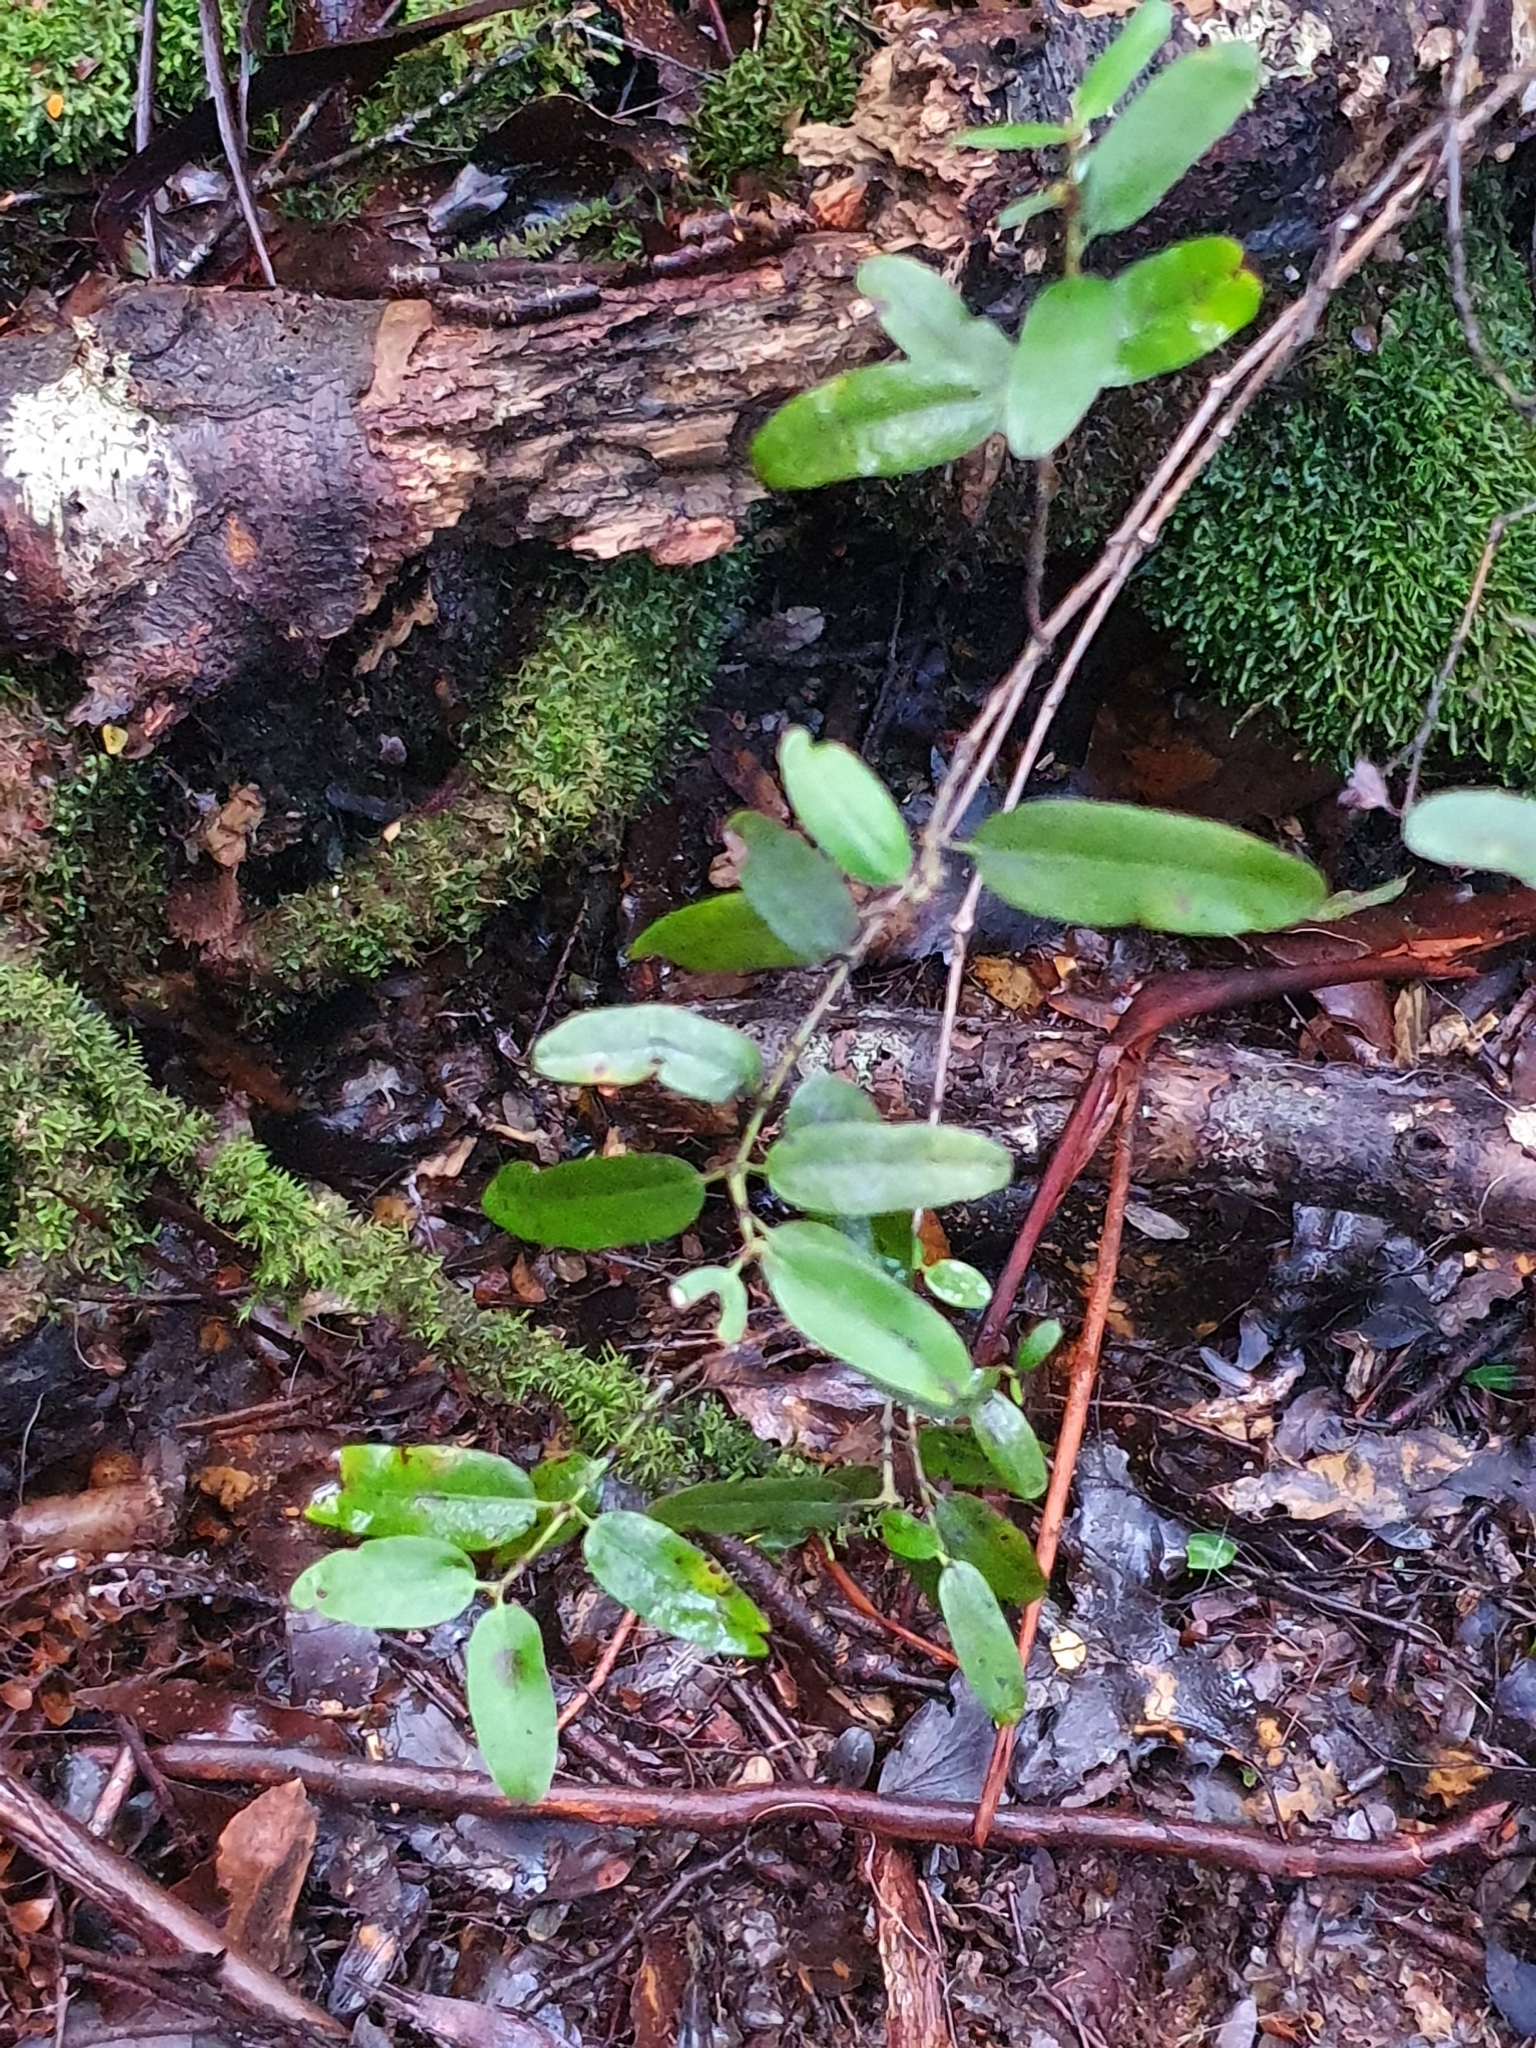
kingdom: Plantae
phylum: Tracheophyta
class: Magnoliopsida
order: Oxalidales
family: Cunoniaceae
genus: Eucryphia
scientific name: Eucryphia lucida
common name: Leatherwood
